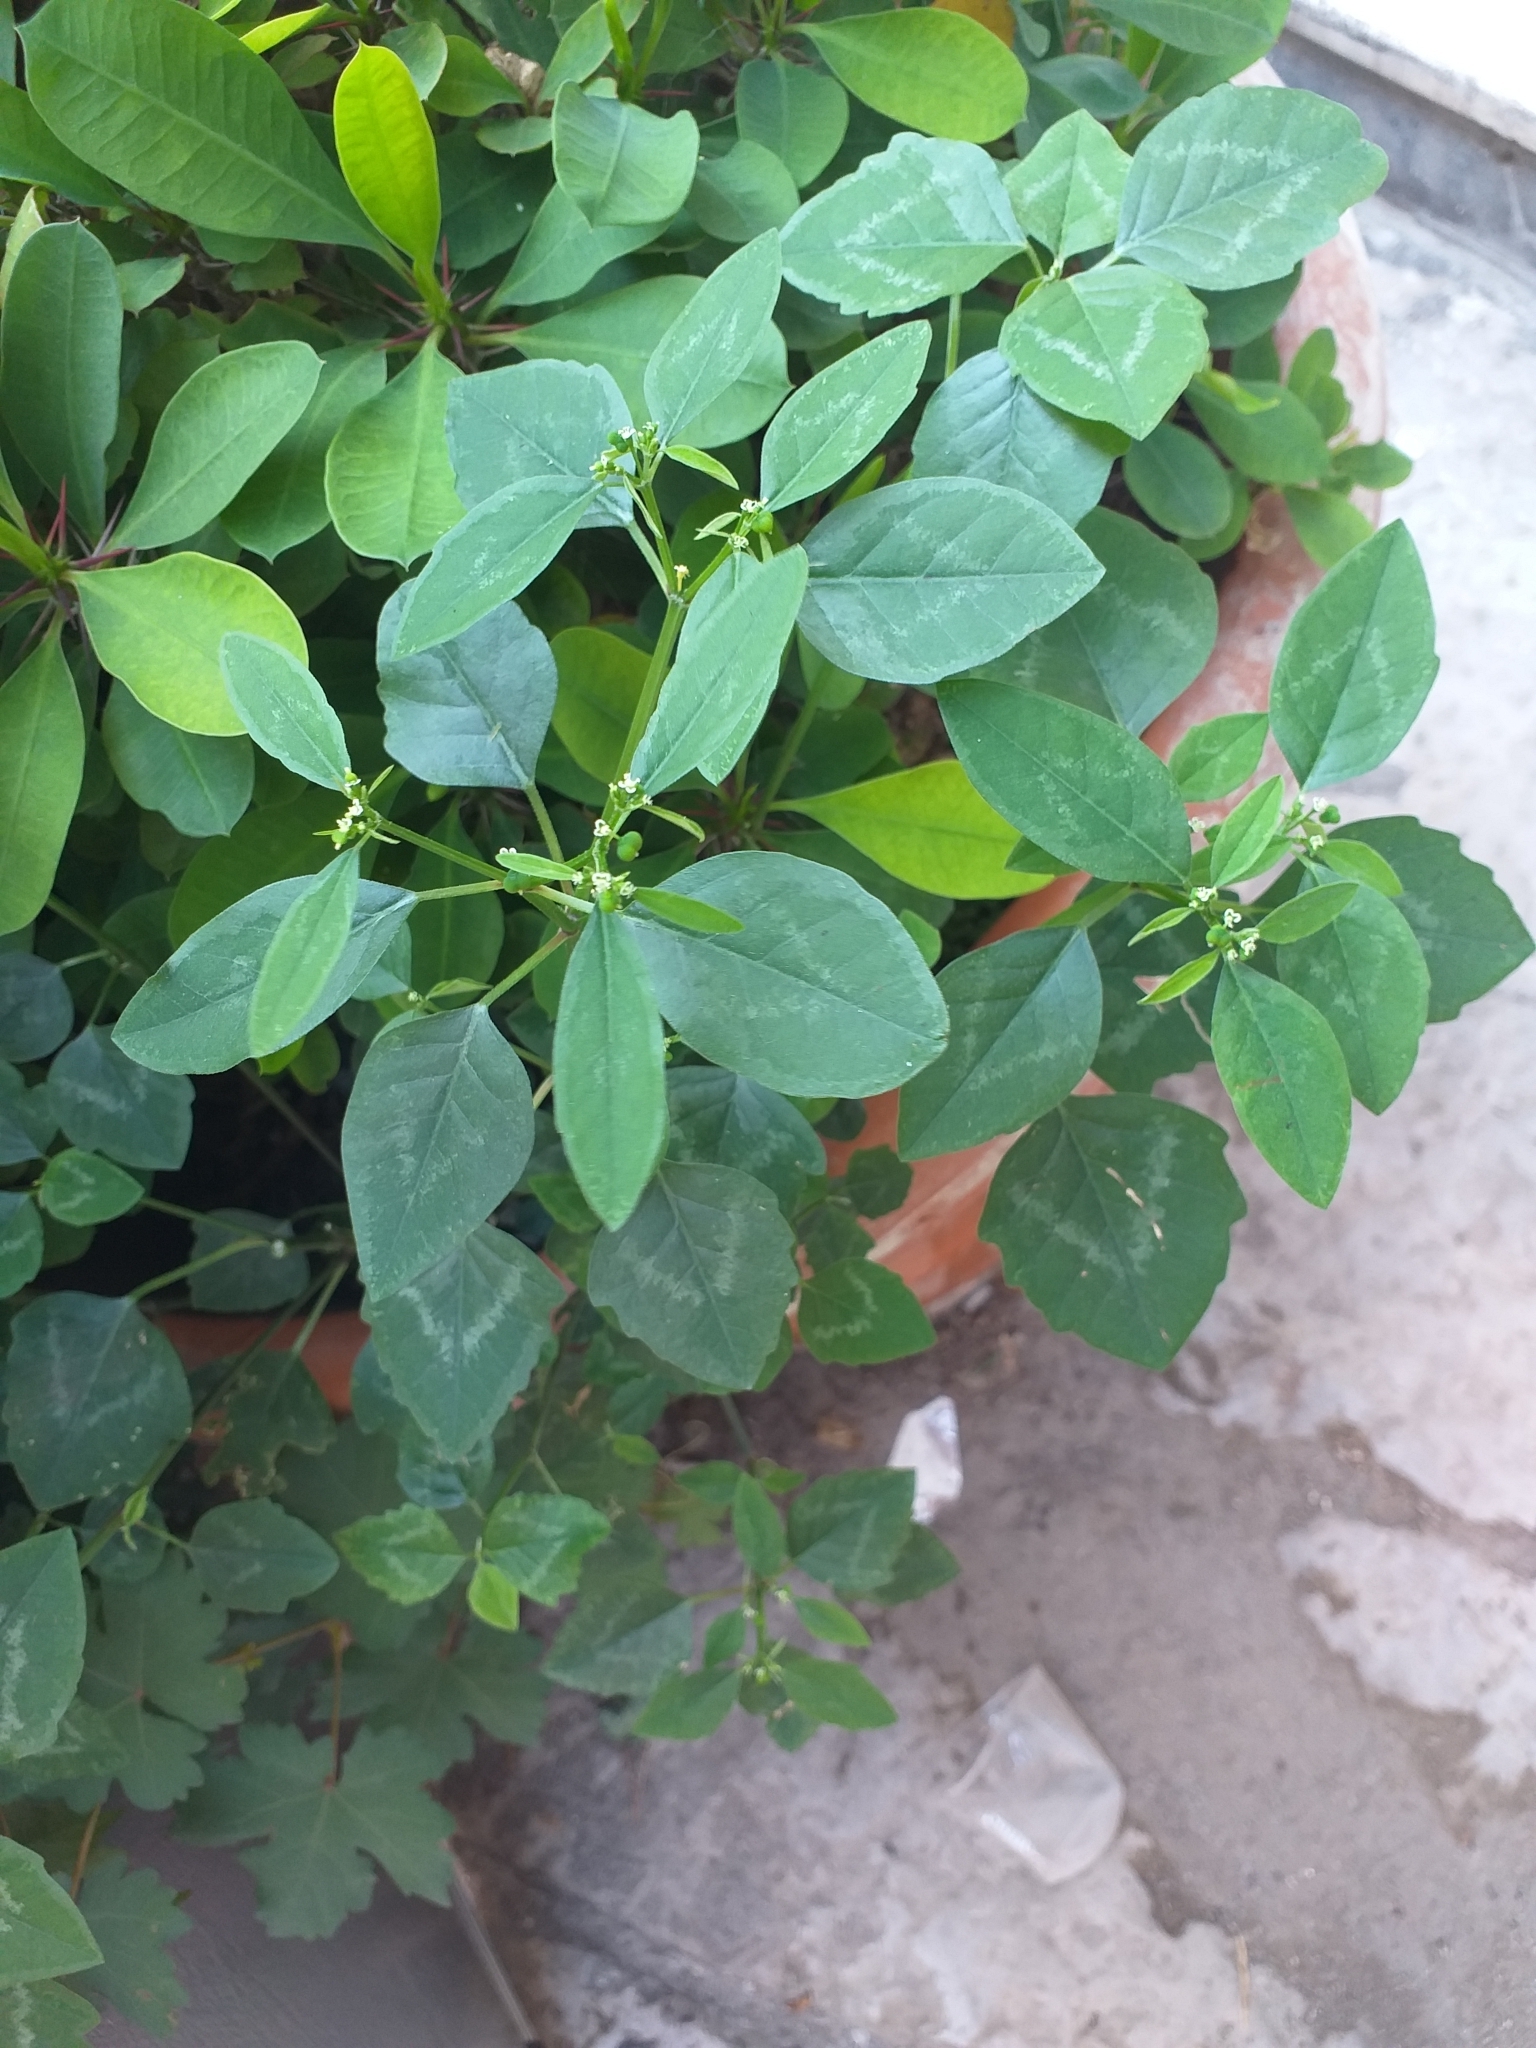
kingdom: Plantae
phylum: Tracheophyta
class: Magnoliopsida
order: Malpighiales
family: Euphorbiaceae
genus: Euphorbia
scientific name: Euphorbia graminea
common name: Grassleaf spurge
